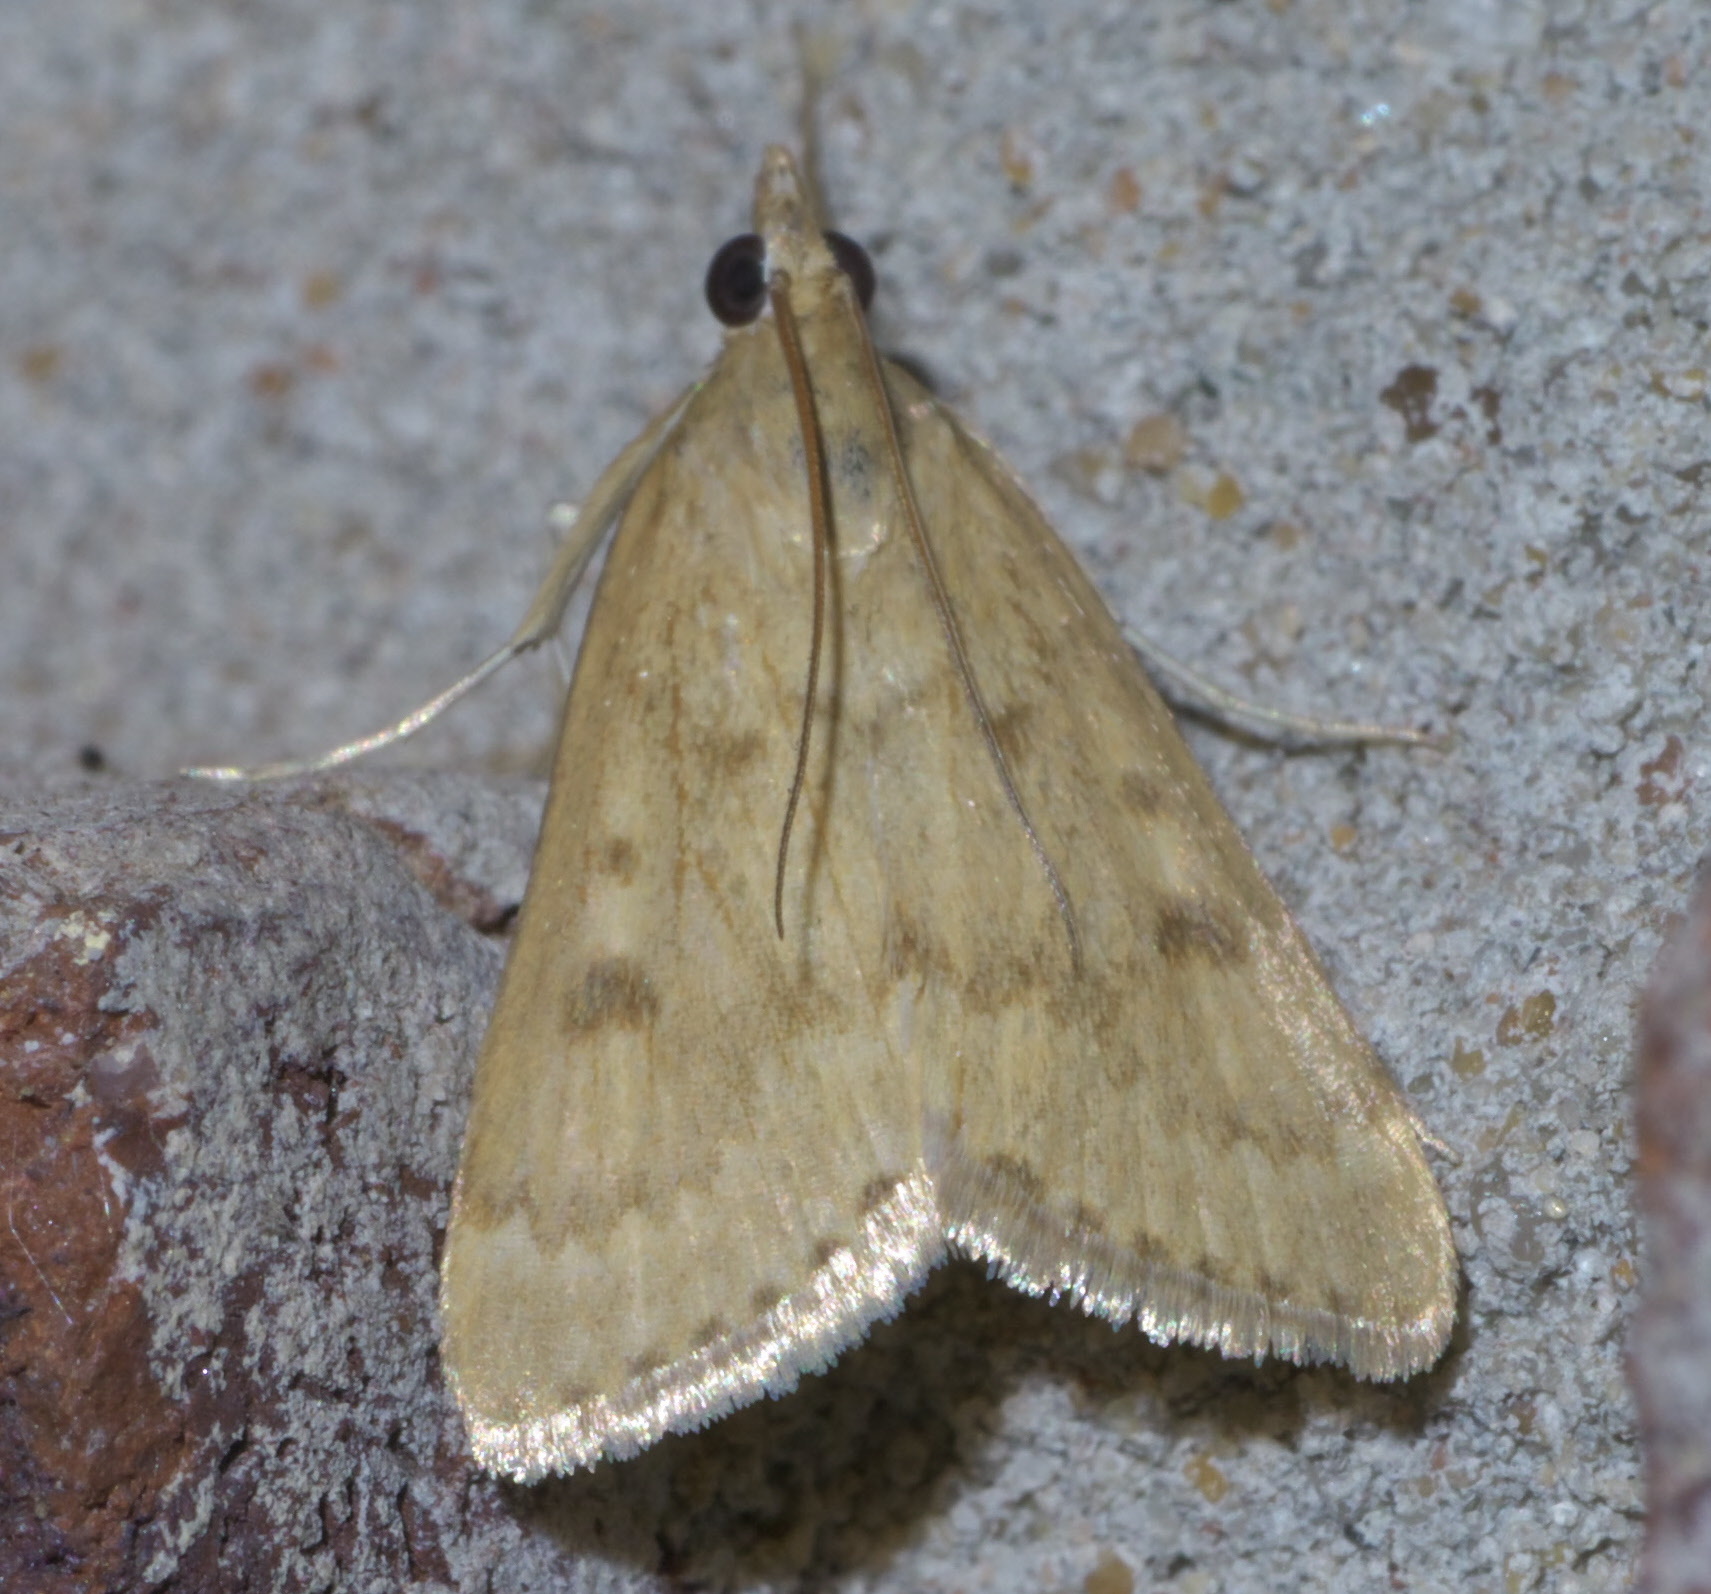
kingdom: Animalia
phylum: Arthropoda
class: Insecta
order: Lepidoptera
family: Crambidae
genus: Achyra
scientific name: Achyra rantalis
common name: Garden webworm
